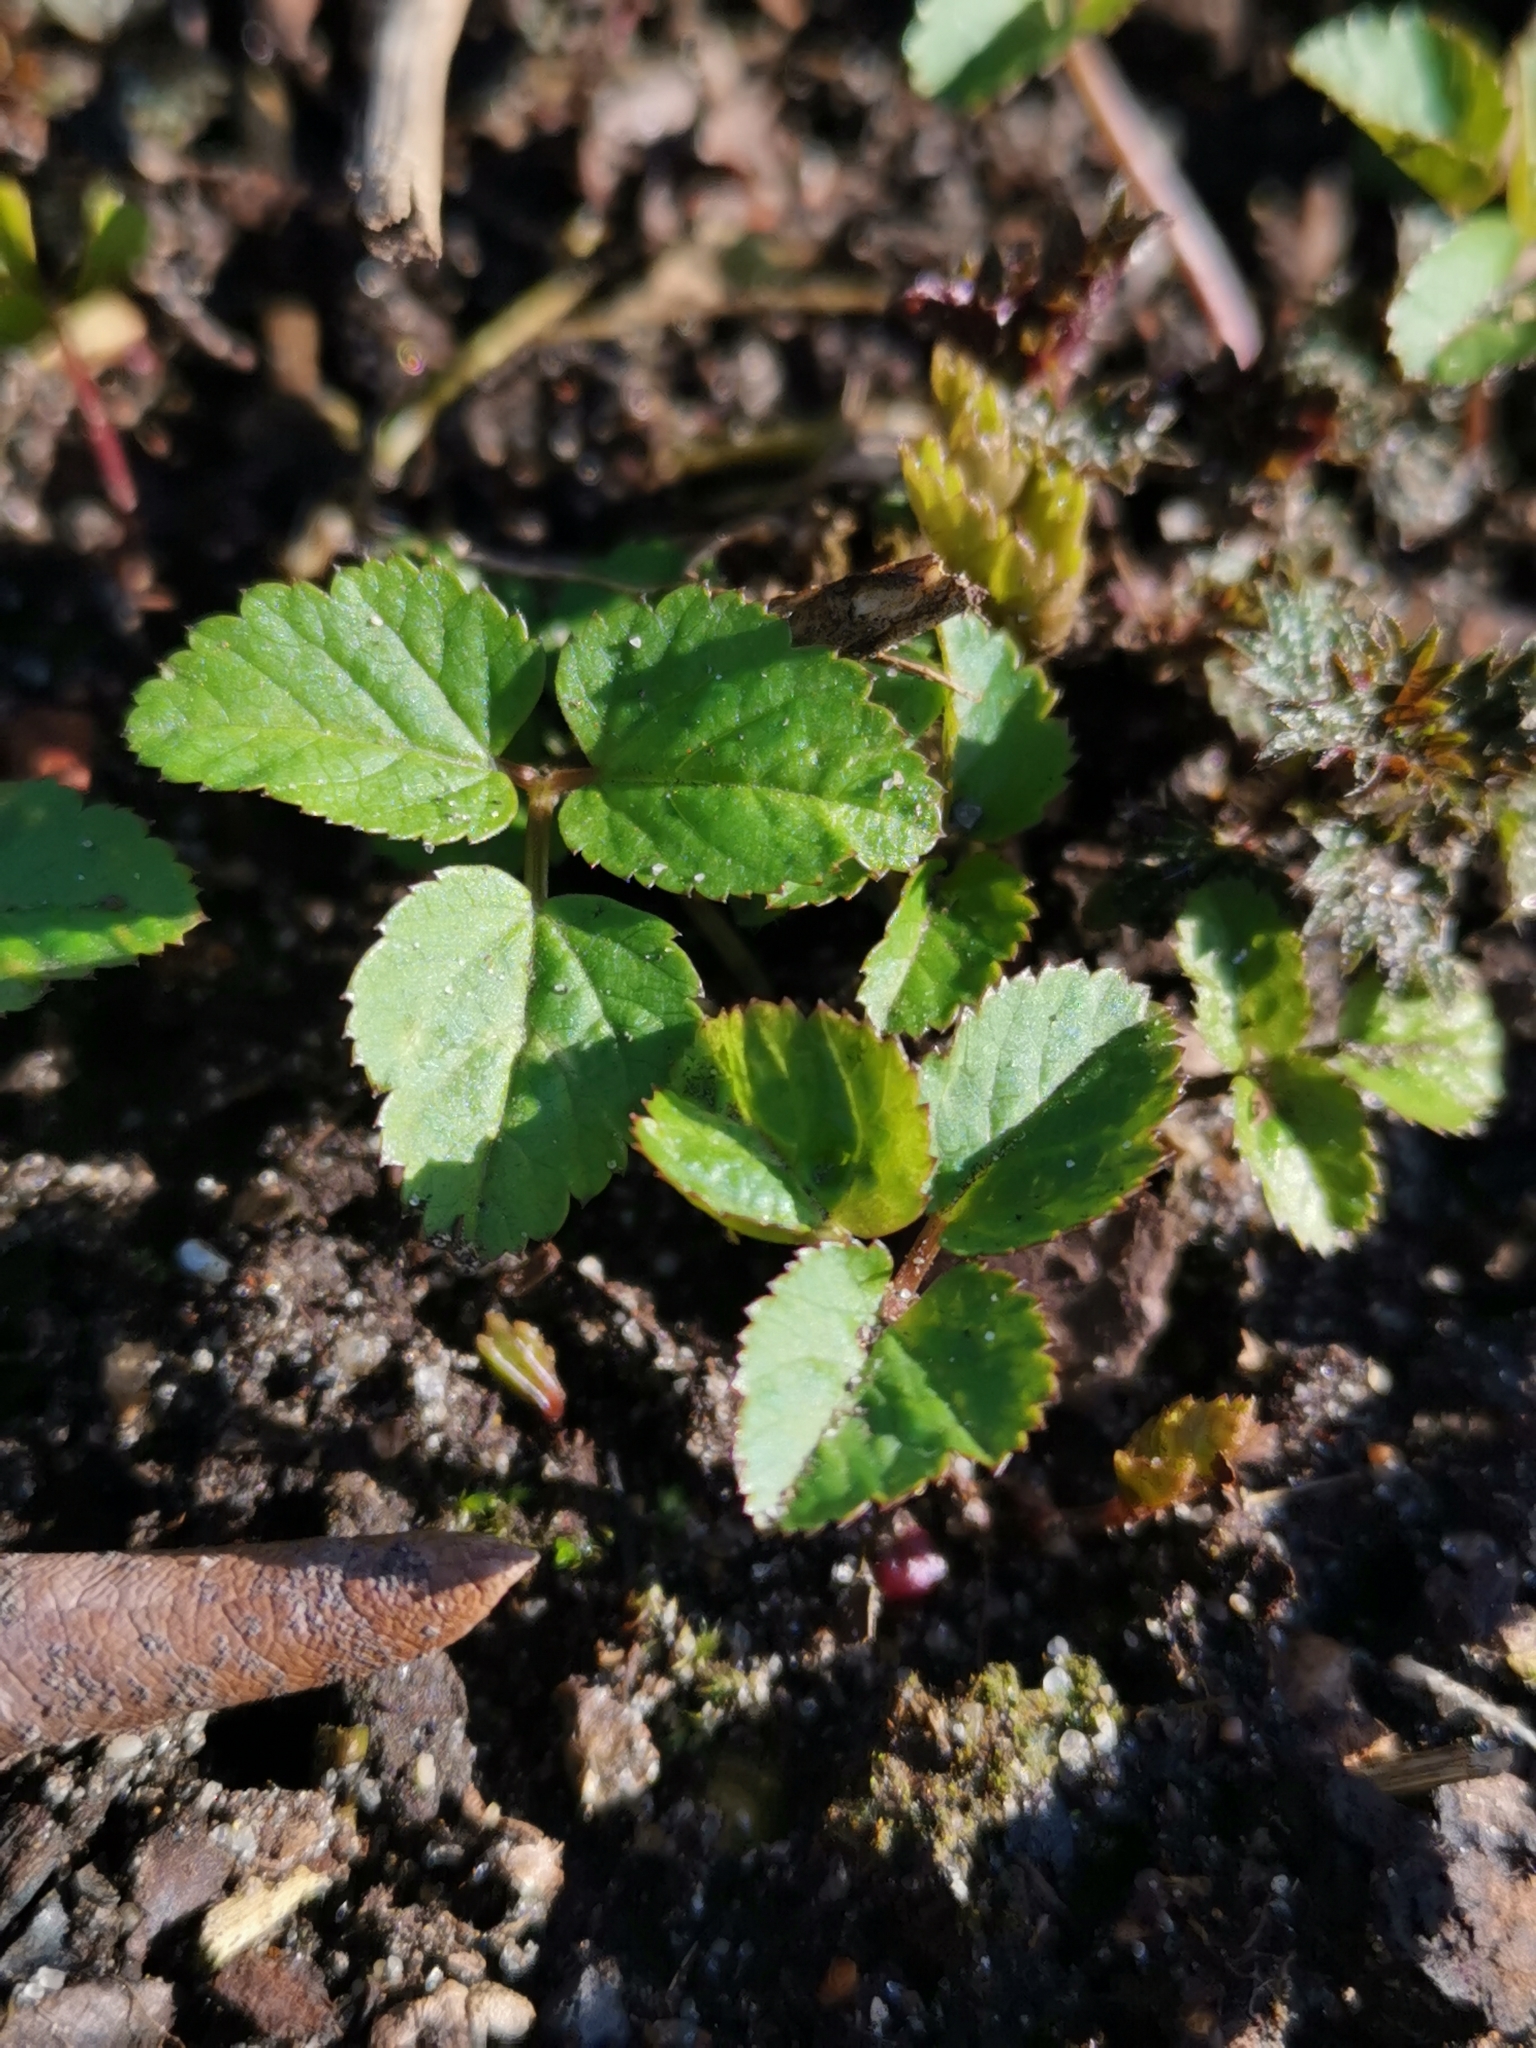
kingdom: Plantae
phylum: Tracheophyta
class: Magnoliopsida
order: Apiales
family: Apiaceae
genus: Aegopodium
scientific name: Aegopodium podagraria
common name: Ground-elder
